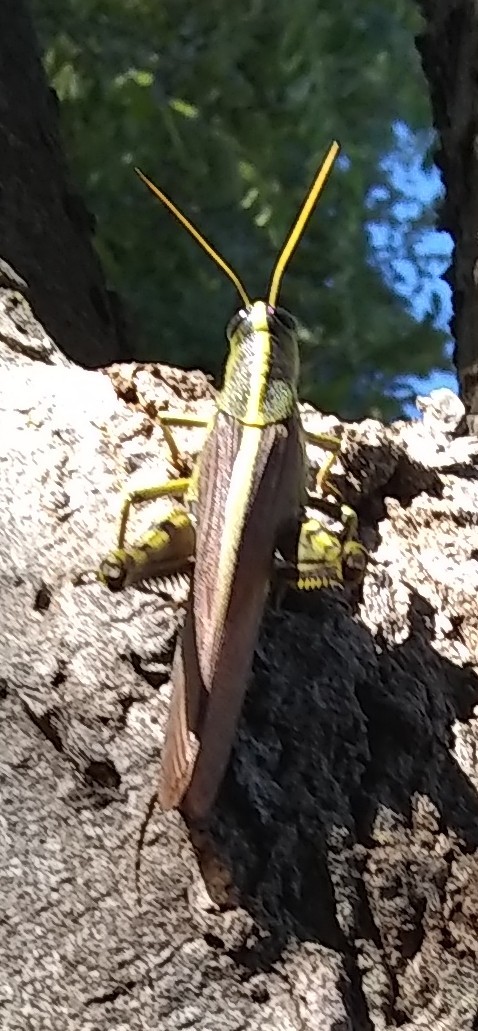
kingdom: Animalia
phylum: Arthropoda
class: Insecta
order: Orthoptera
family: Acrididae
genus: Schistocerca
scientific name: Schistocerca obscura
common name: Obscure bird grasshopper
